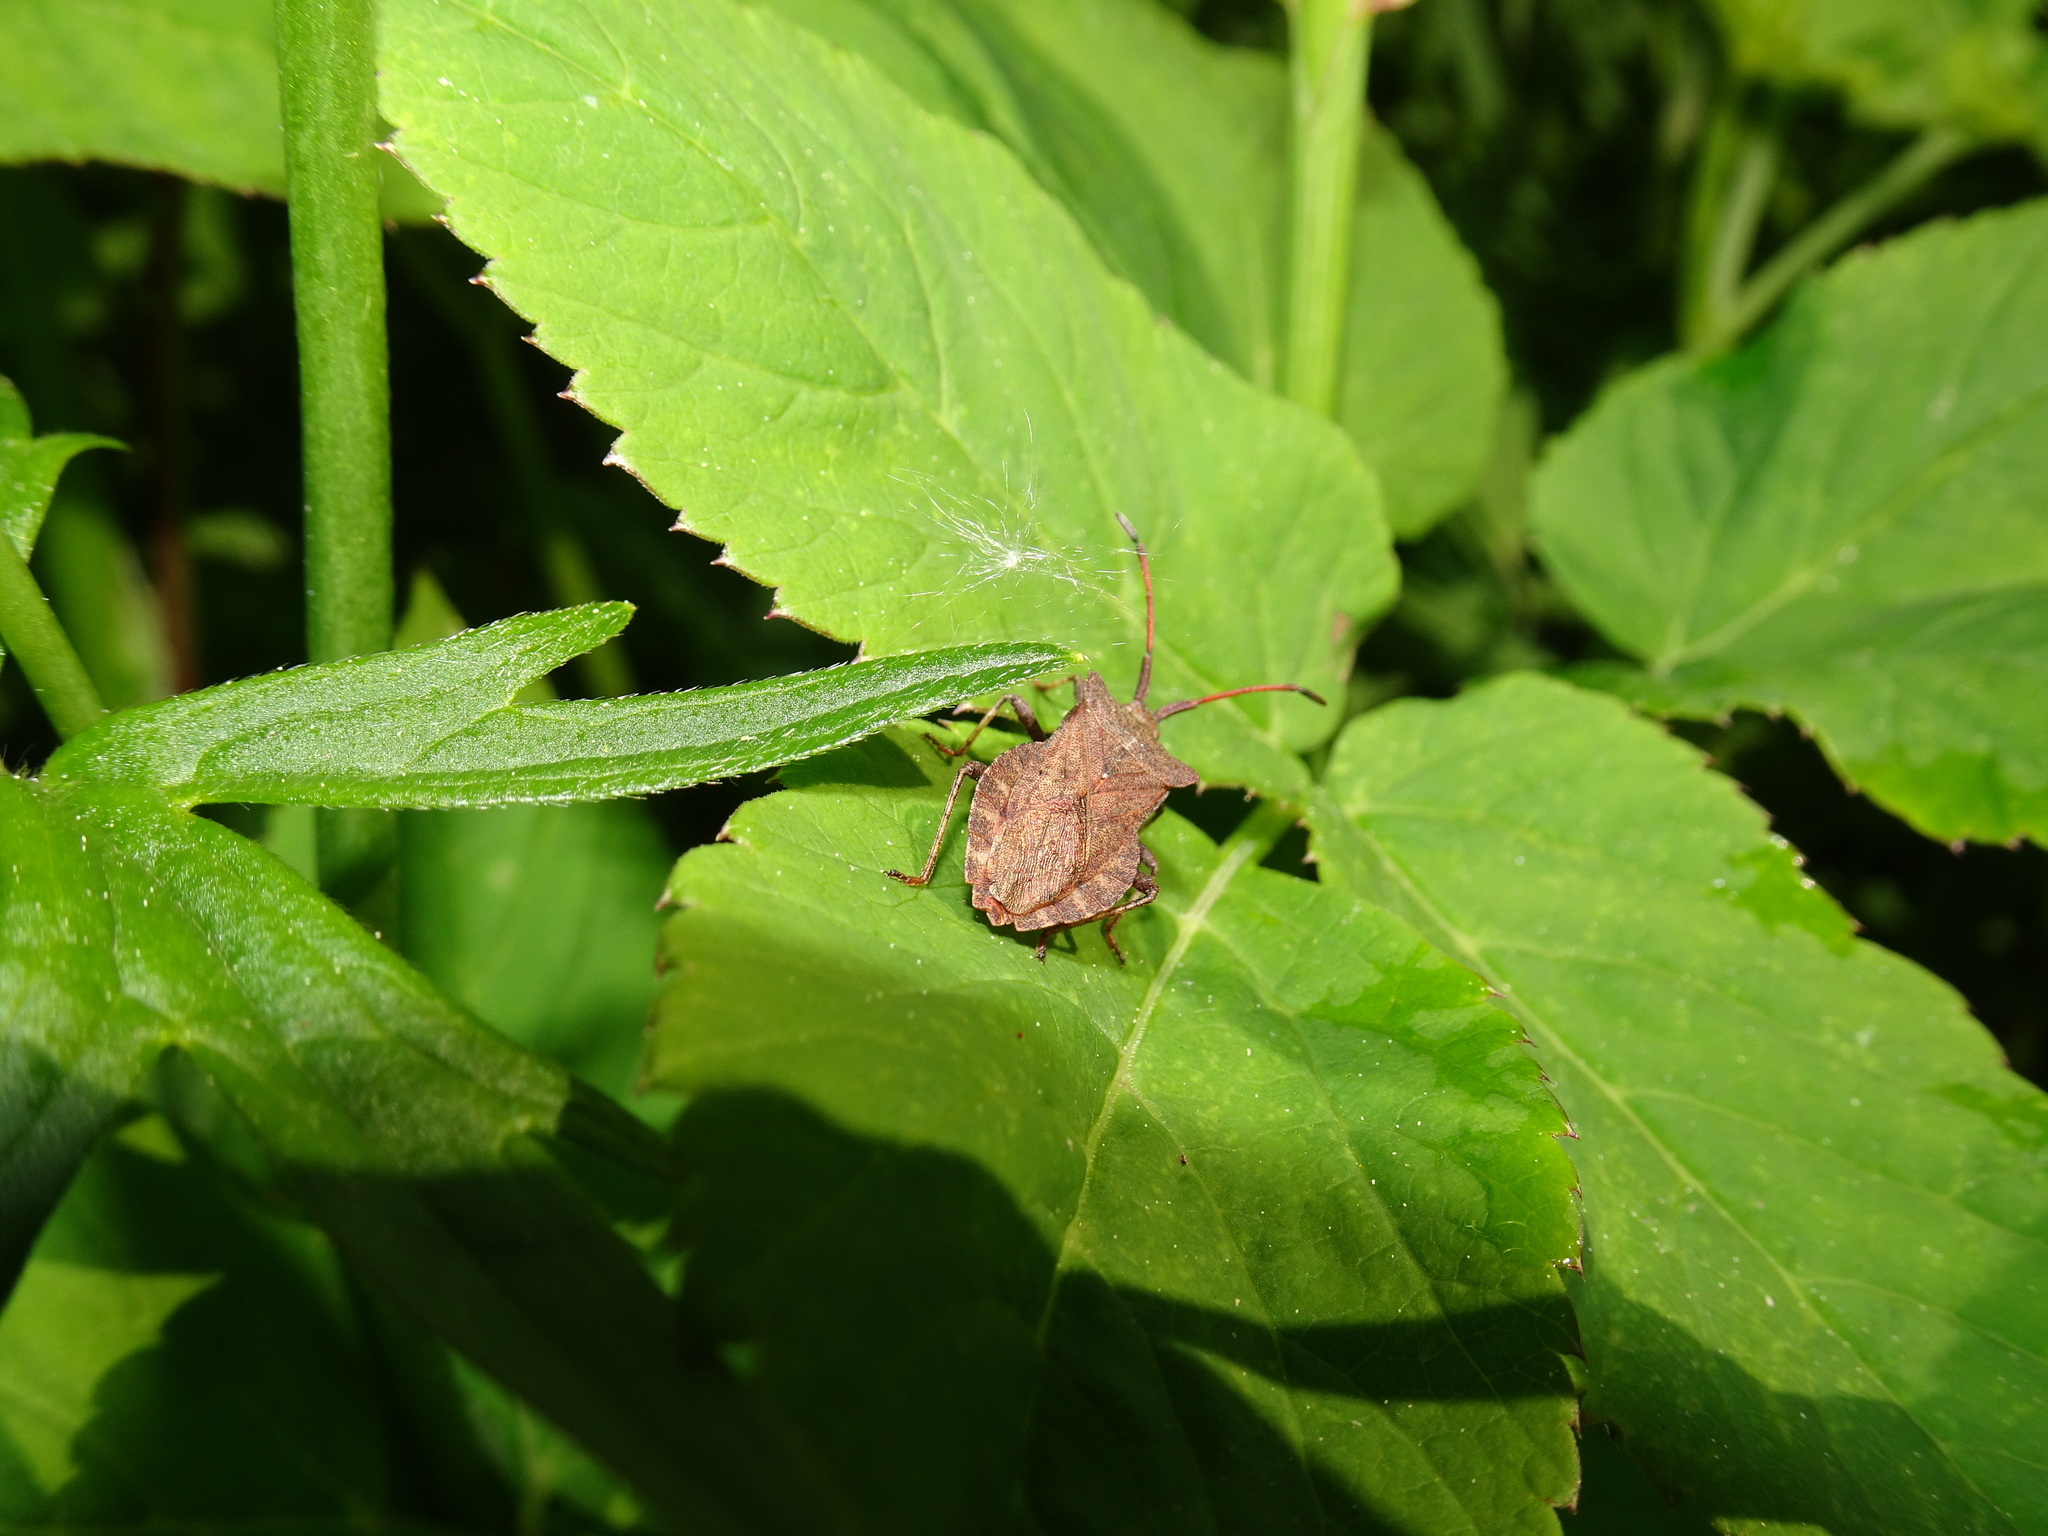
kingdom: Animalia
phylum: Arthropoda
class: Insecta
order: Hemiptera
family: Coreidae
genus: Coreus
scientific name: Coreus marginatus
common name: Dock bug
